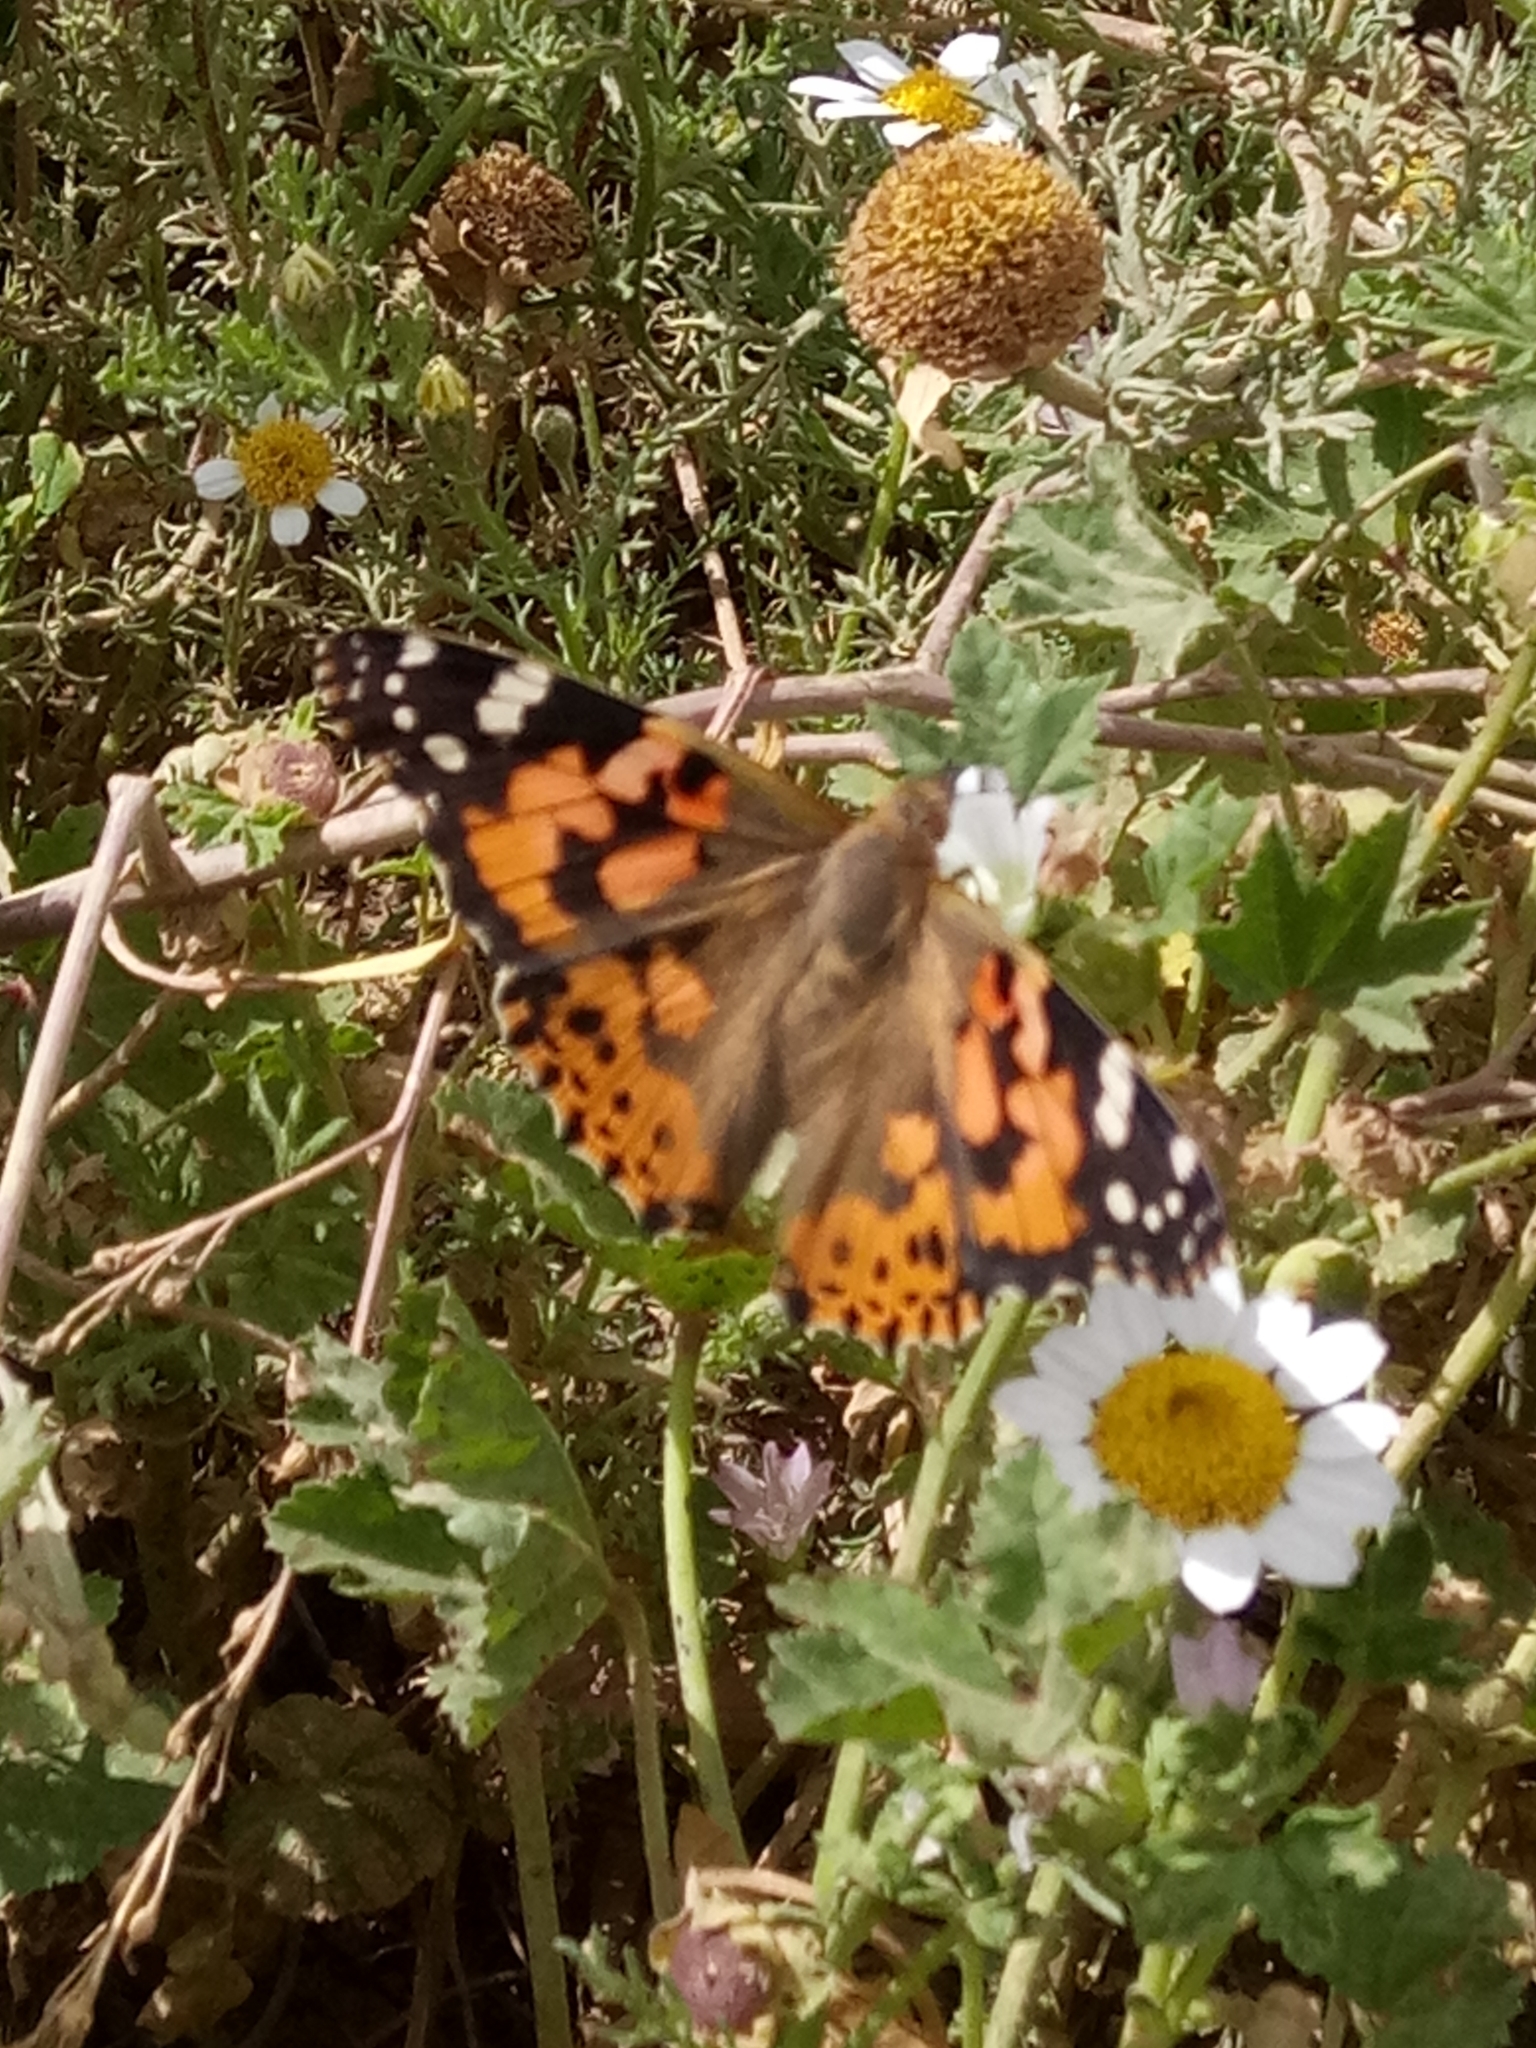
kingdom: Animalia
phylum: Arthropoda
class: Insecta
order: Lepidoptera
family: Nymphalidae
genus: Vanessa
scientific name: Vanessa cardui
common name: Painted lady
